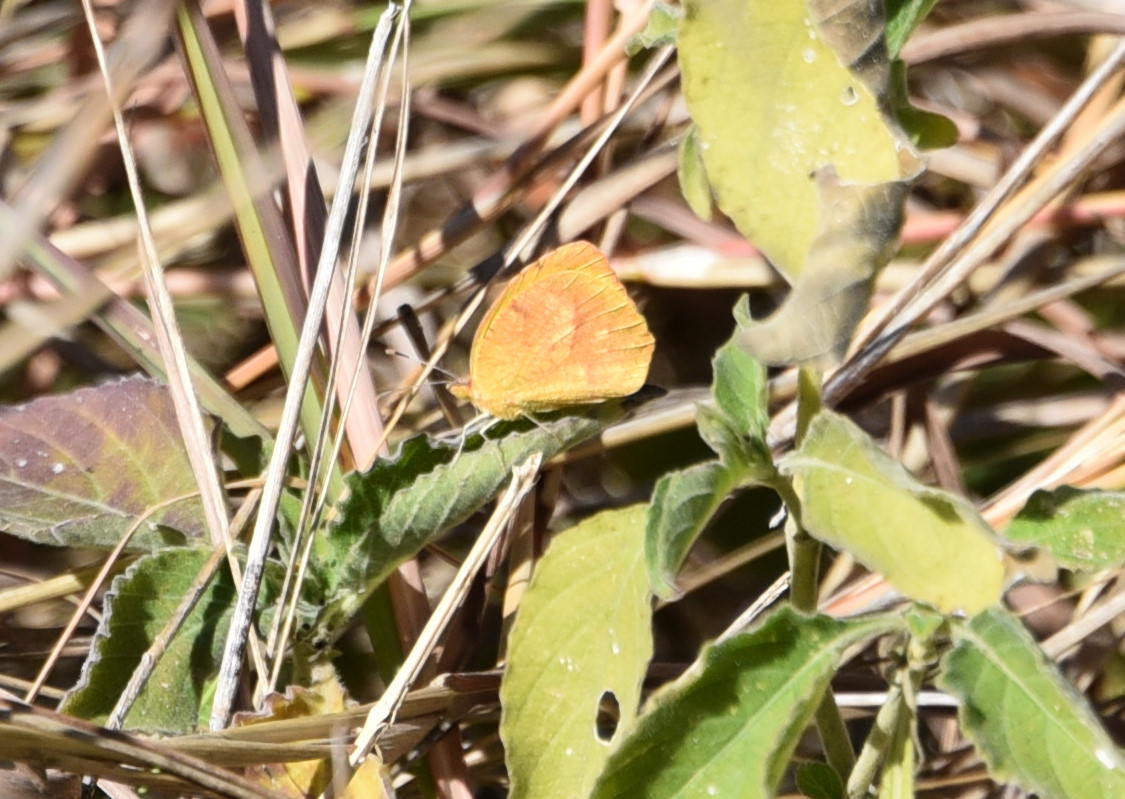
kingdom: Animalia
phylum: Arthropoda
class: Insecta
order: Lepidoptera
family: Pieridae
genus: Abaeis
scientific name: Abaeis nicippe
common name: Sleepy orange
